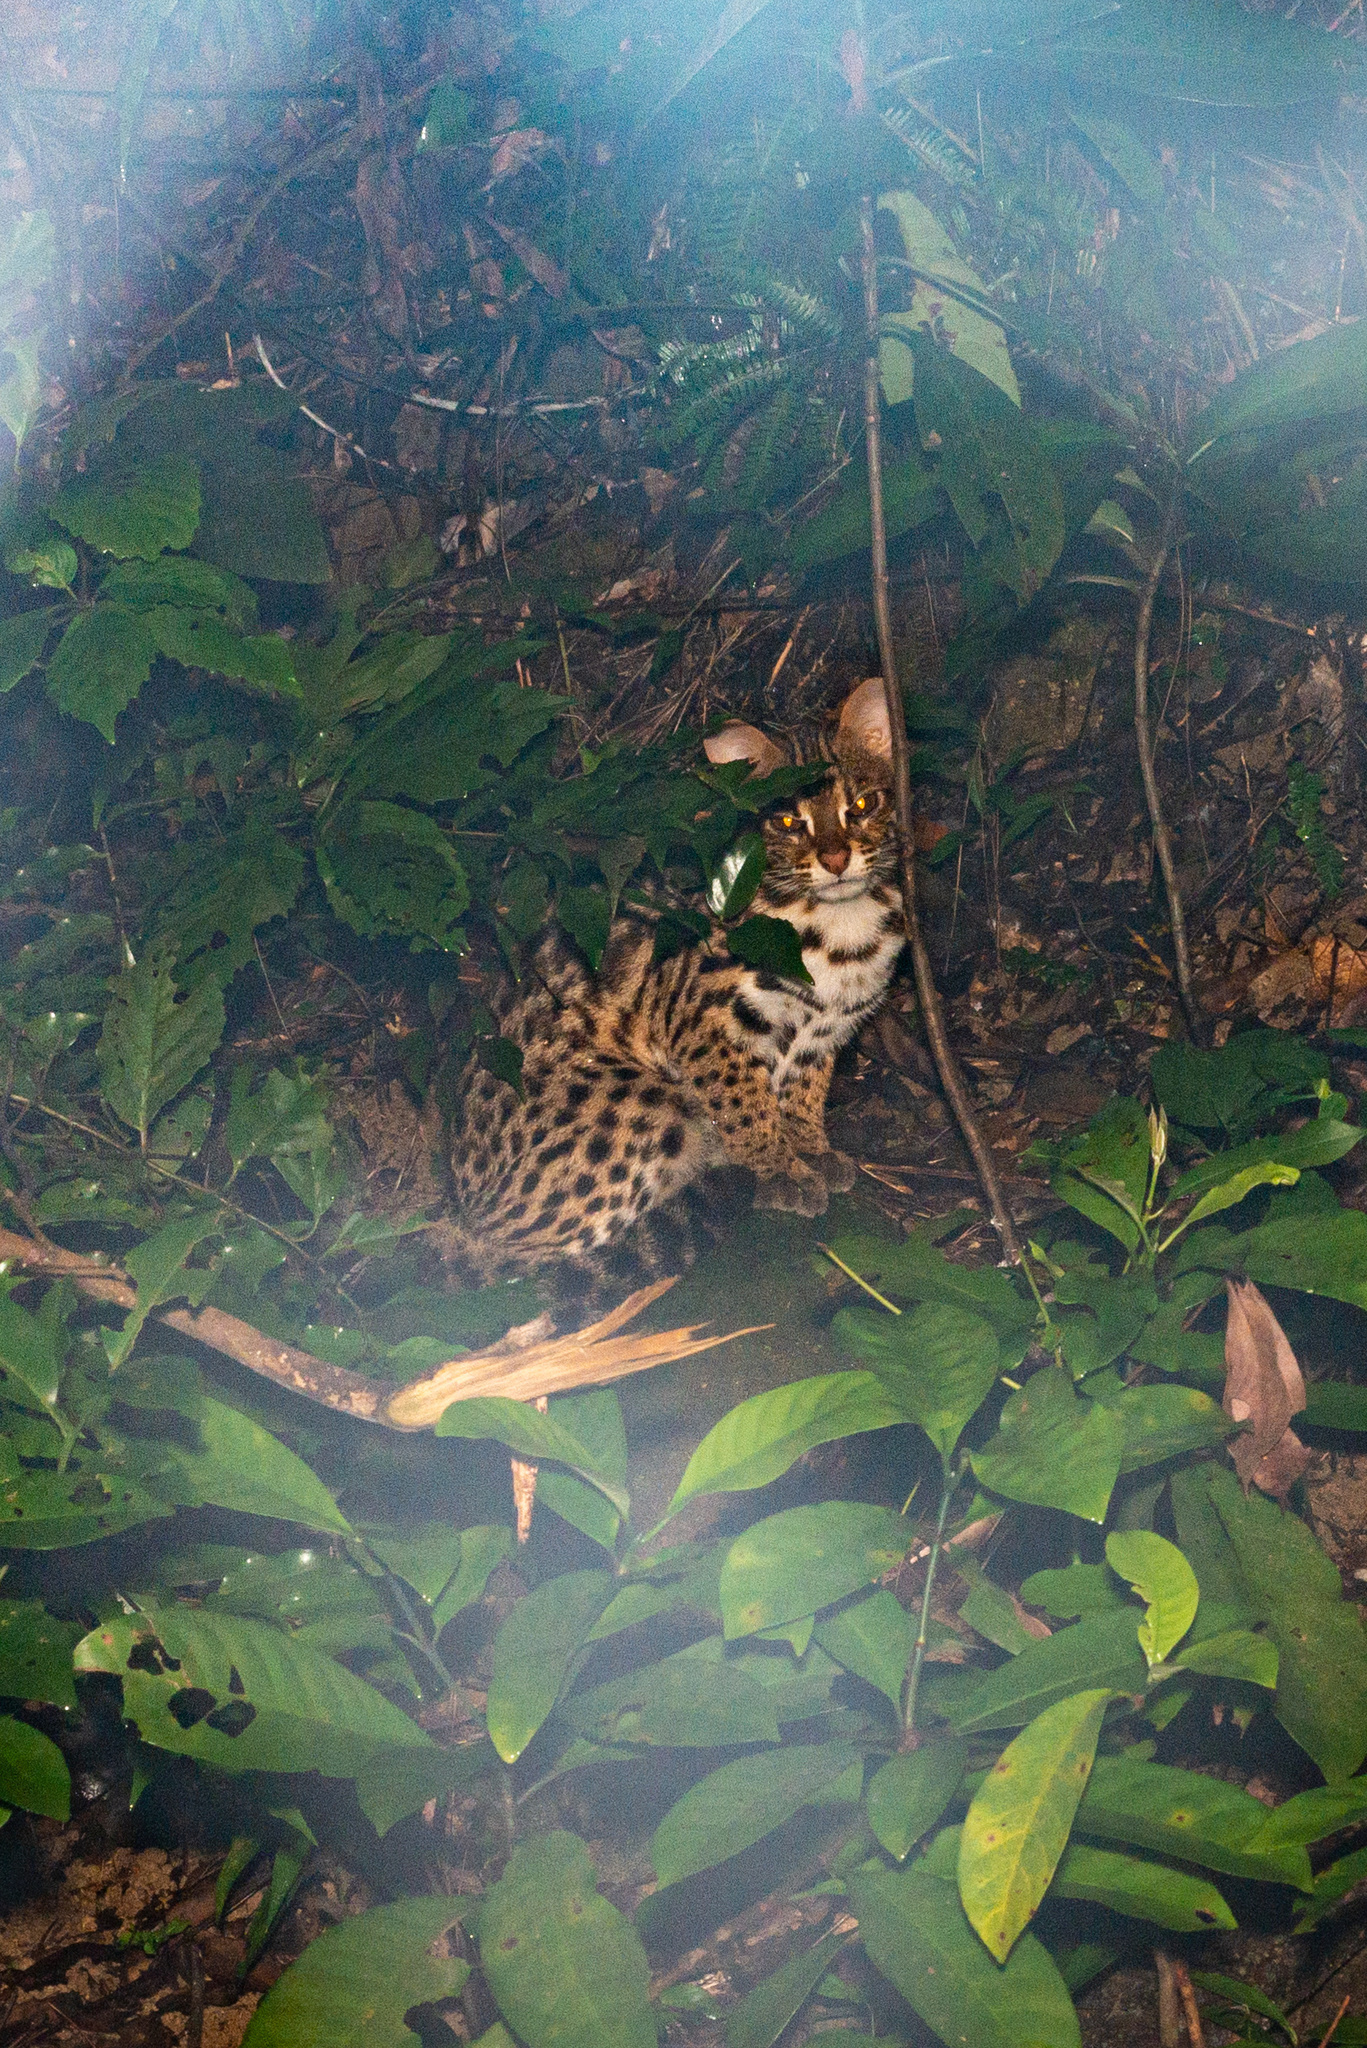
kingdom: Animalia
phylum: Chordata
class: Mammalia
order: Carnivora
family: Felidae
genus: Prionailurus
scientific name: Prionailurus bengalensis
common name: Leopard cat
